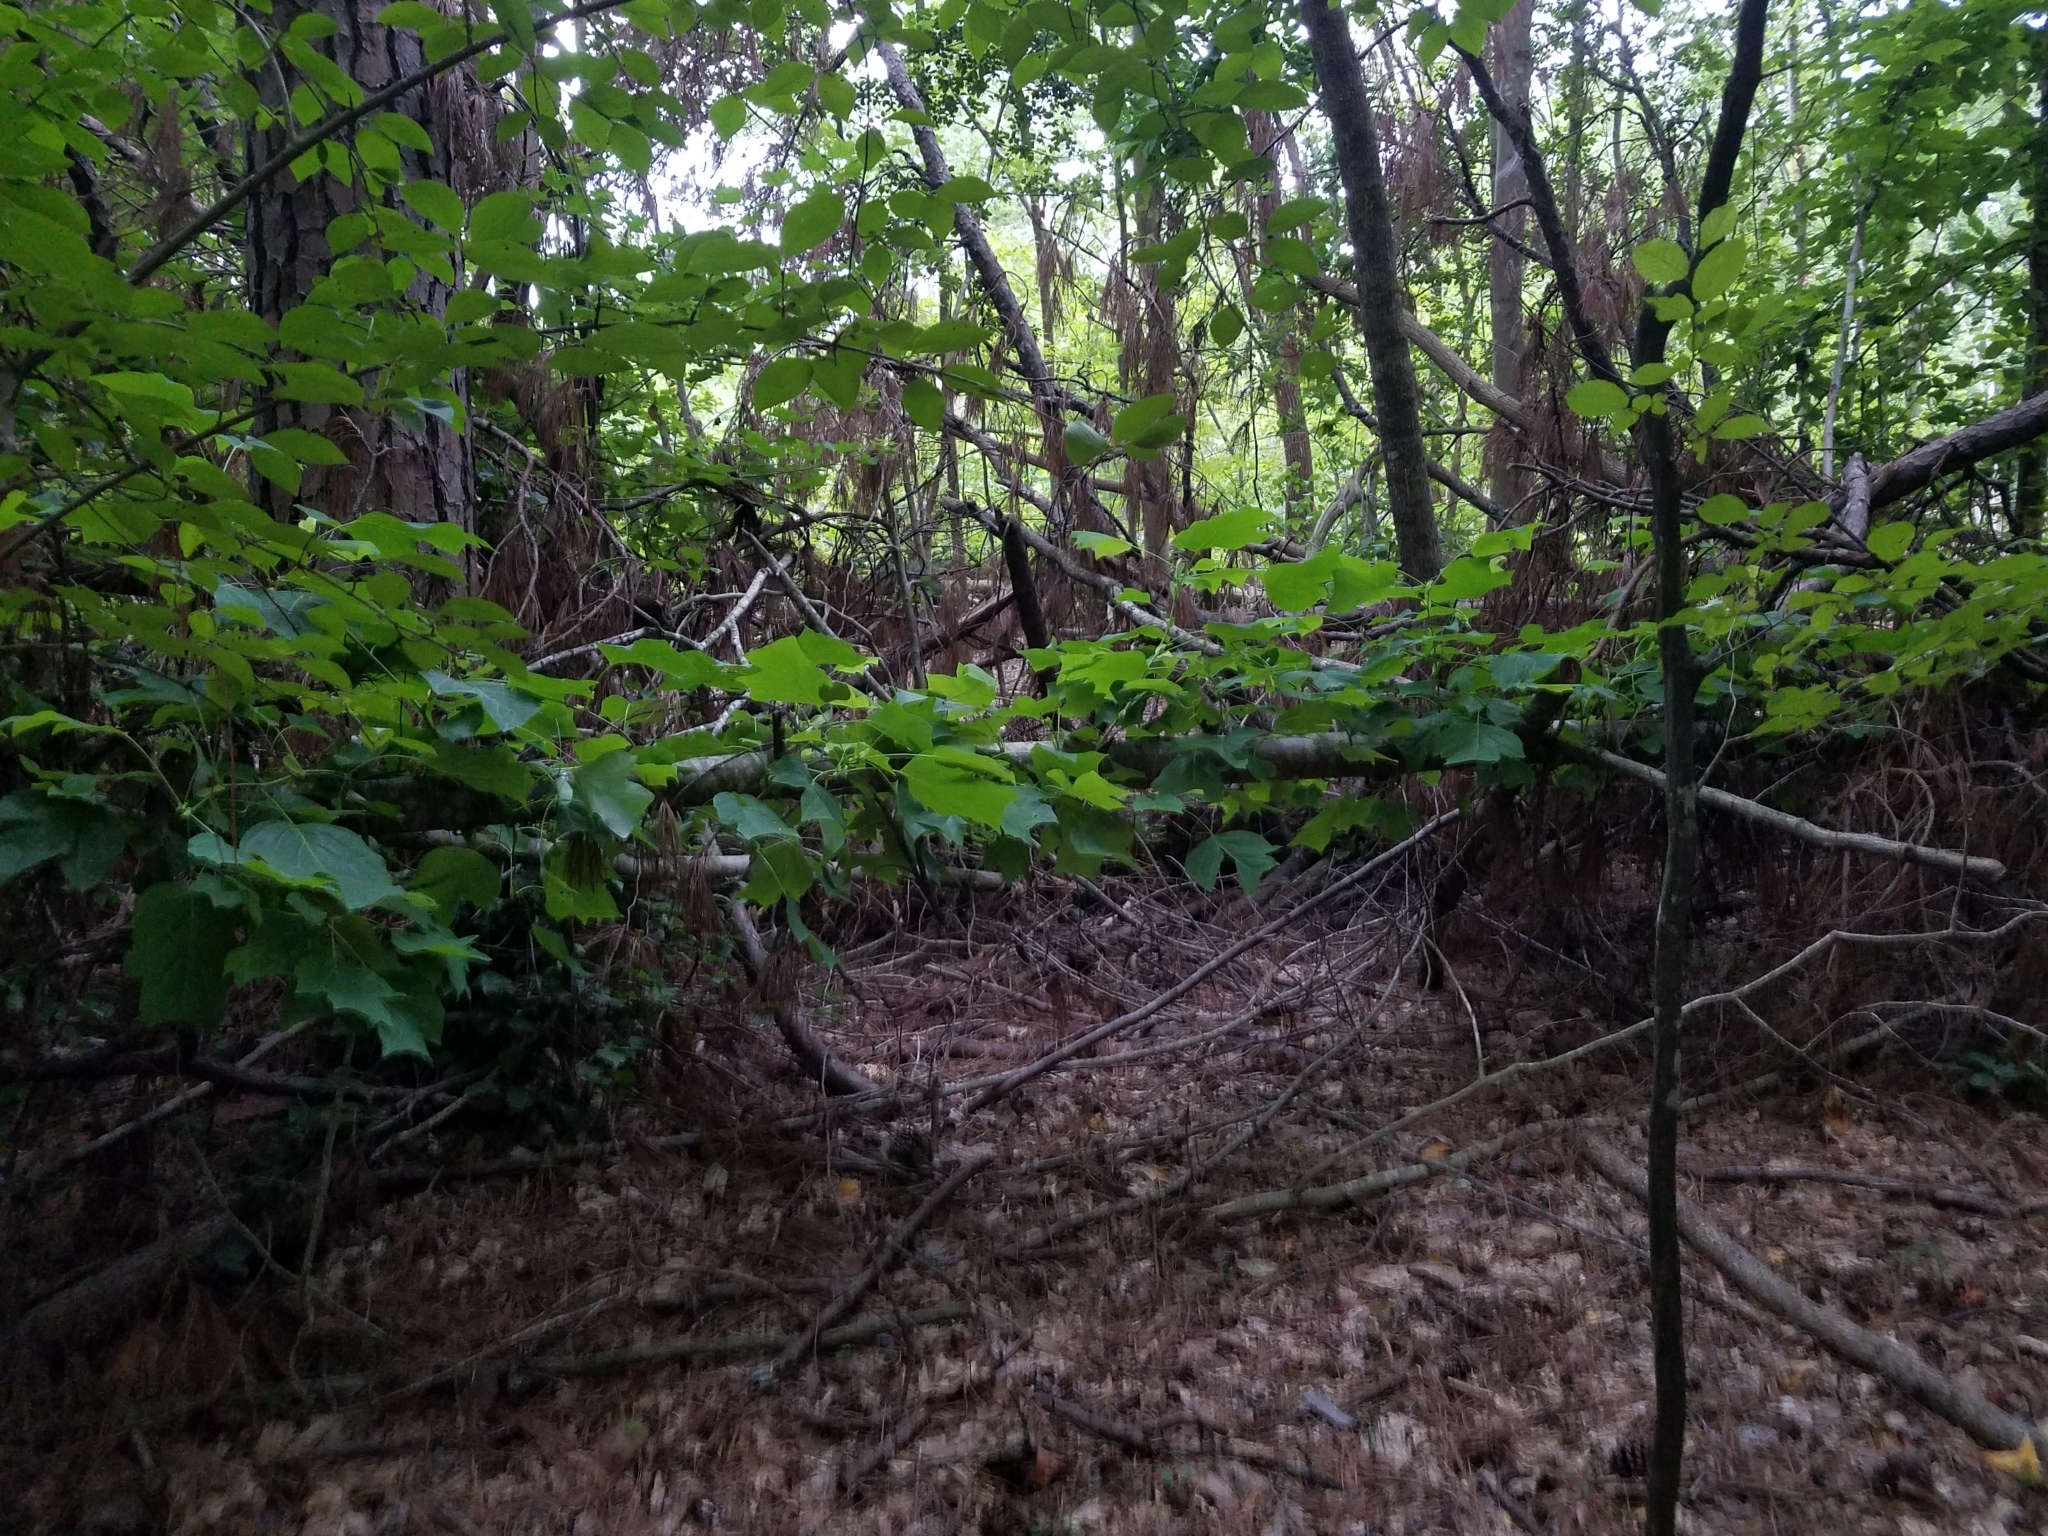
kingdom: Plantae
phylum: Tracheophyta
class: Magnoliopsida
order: Magnoliales
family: Magnoliaceae
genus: Liriodendron
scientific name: Liriodendron tulipifera
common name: Tulip tree
